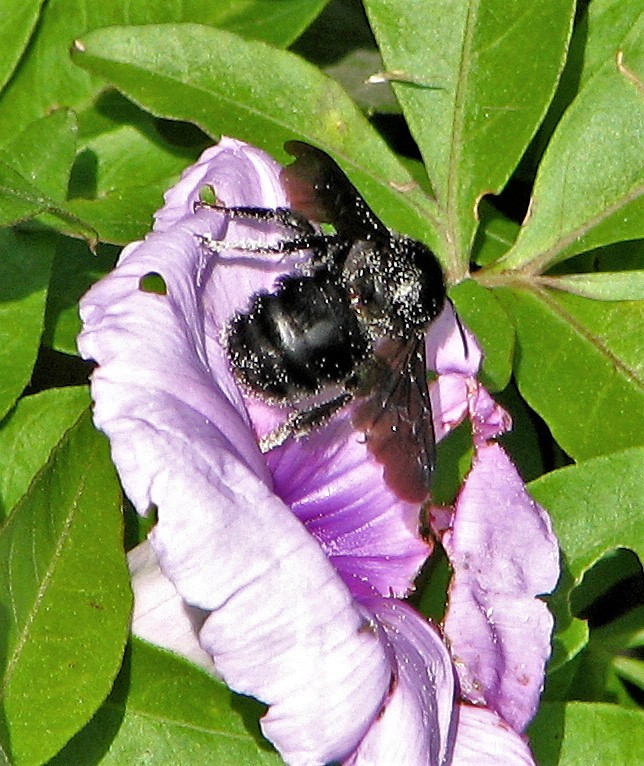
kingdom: Animalia
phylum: Arthropoda
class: Insecta
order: Hymenoptera
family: Apidae
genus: Bombus
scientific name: Bombus pauloensis
